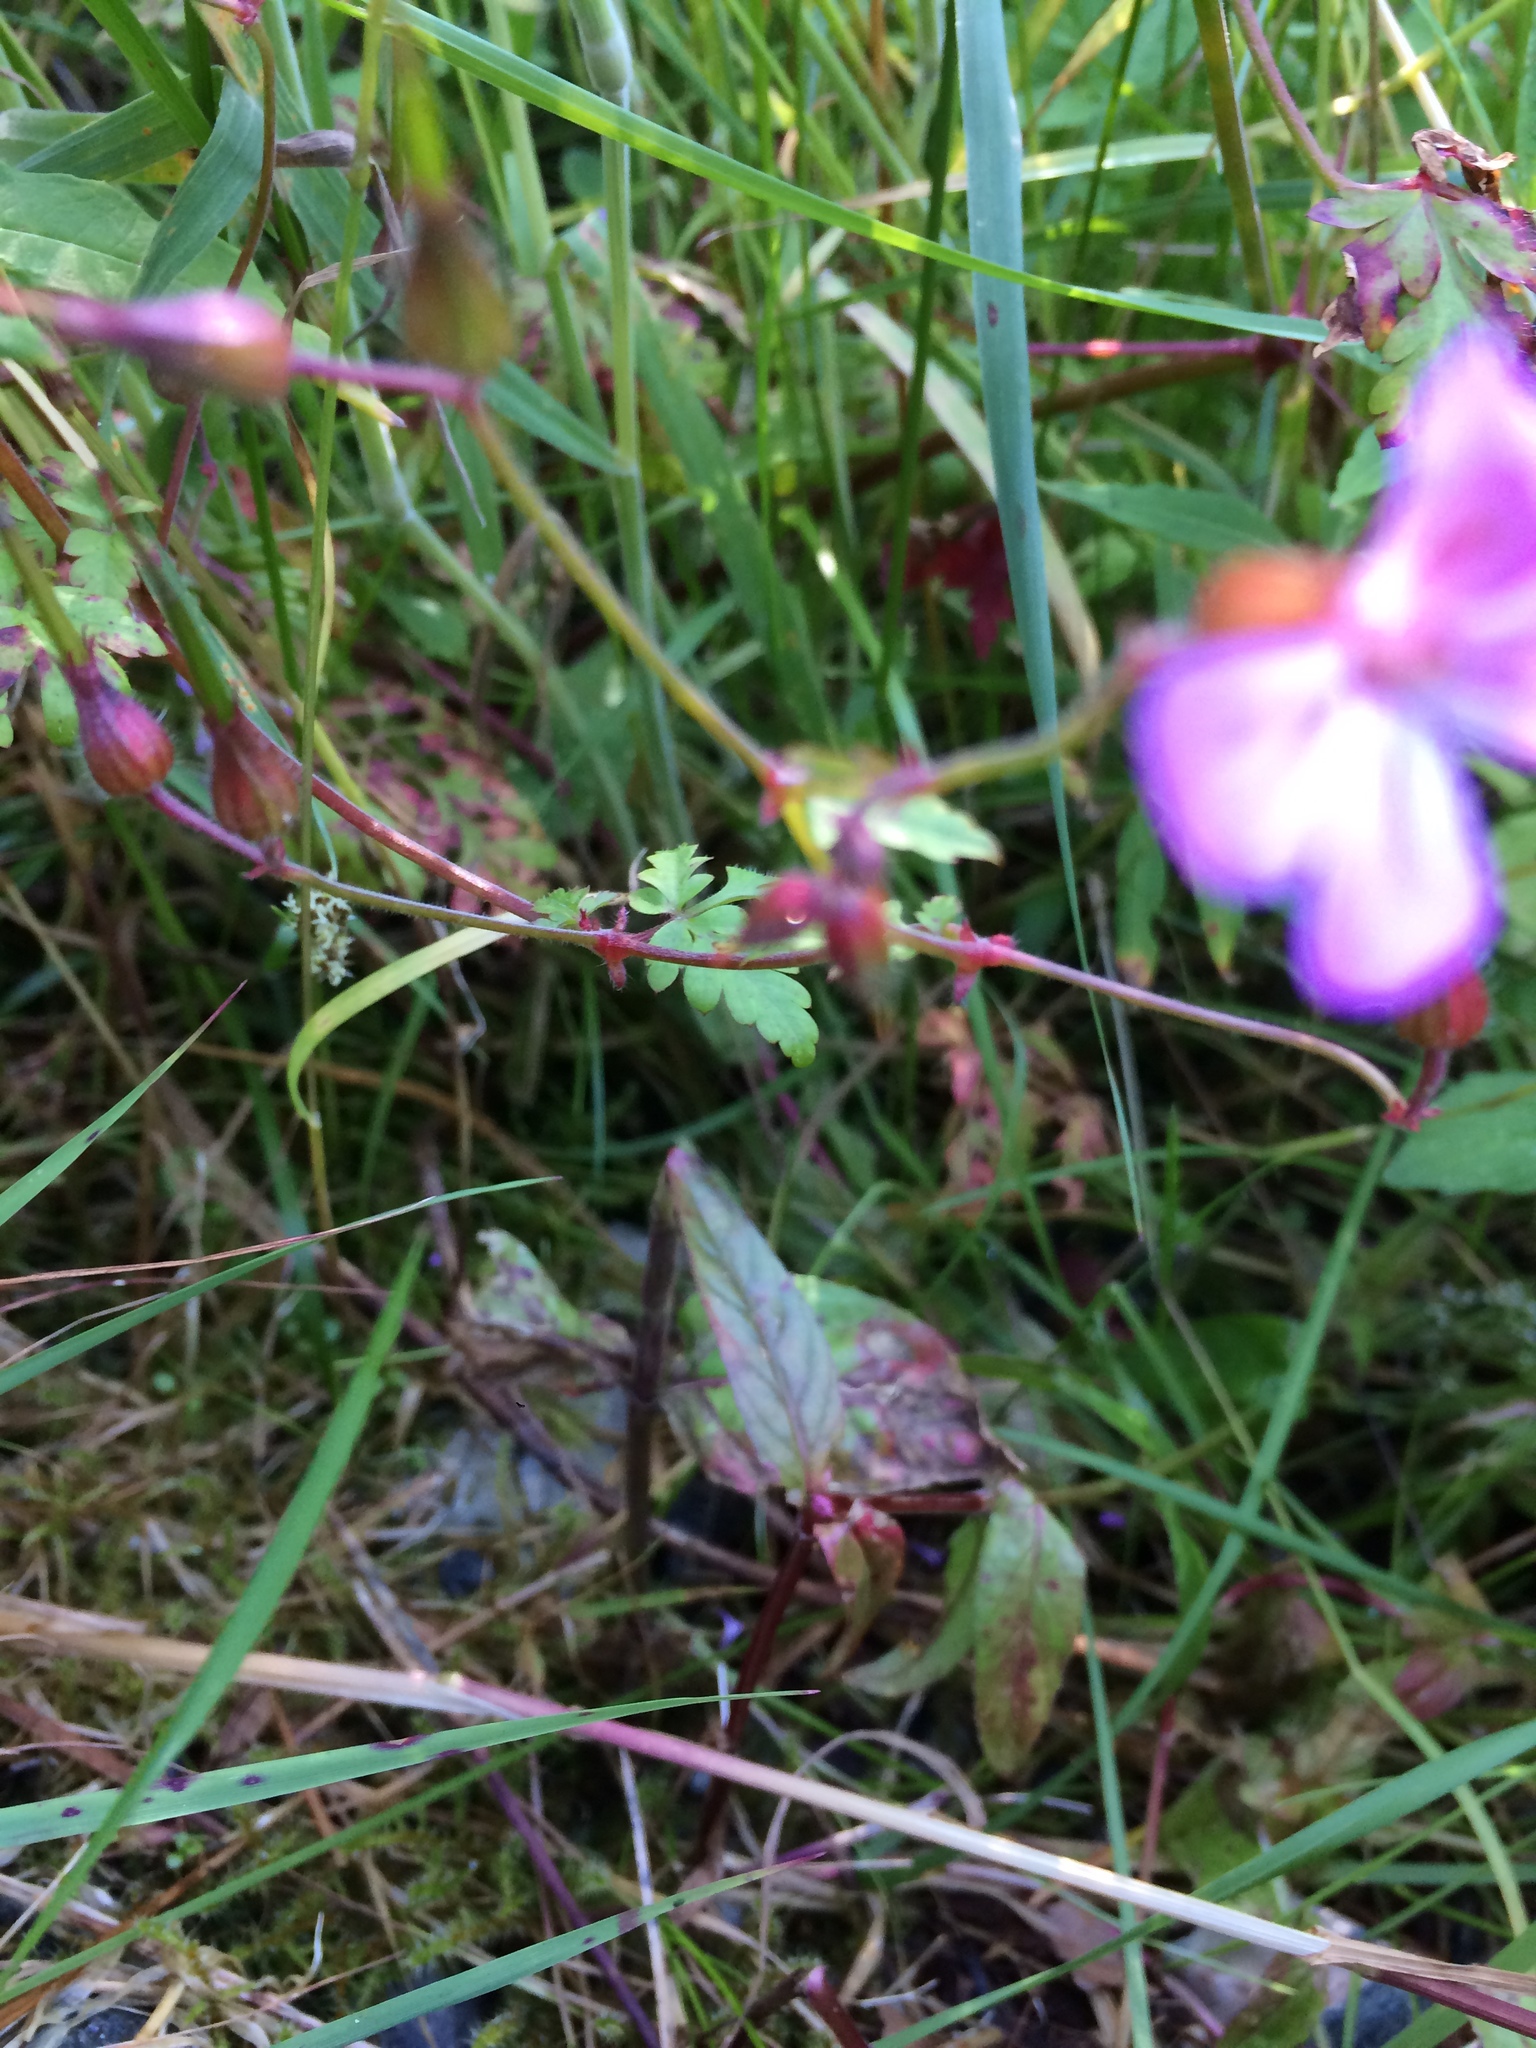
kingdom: Plantae
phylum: Tracheophyta
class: Magnoliopsida
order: Geraniales
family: Geraniaceae
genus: Geranium
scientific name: Geranium robertianum
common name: Herb-robert
